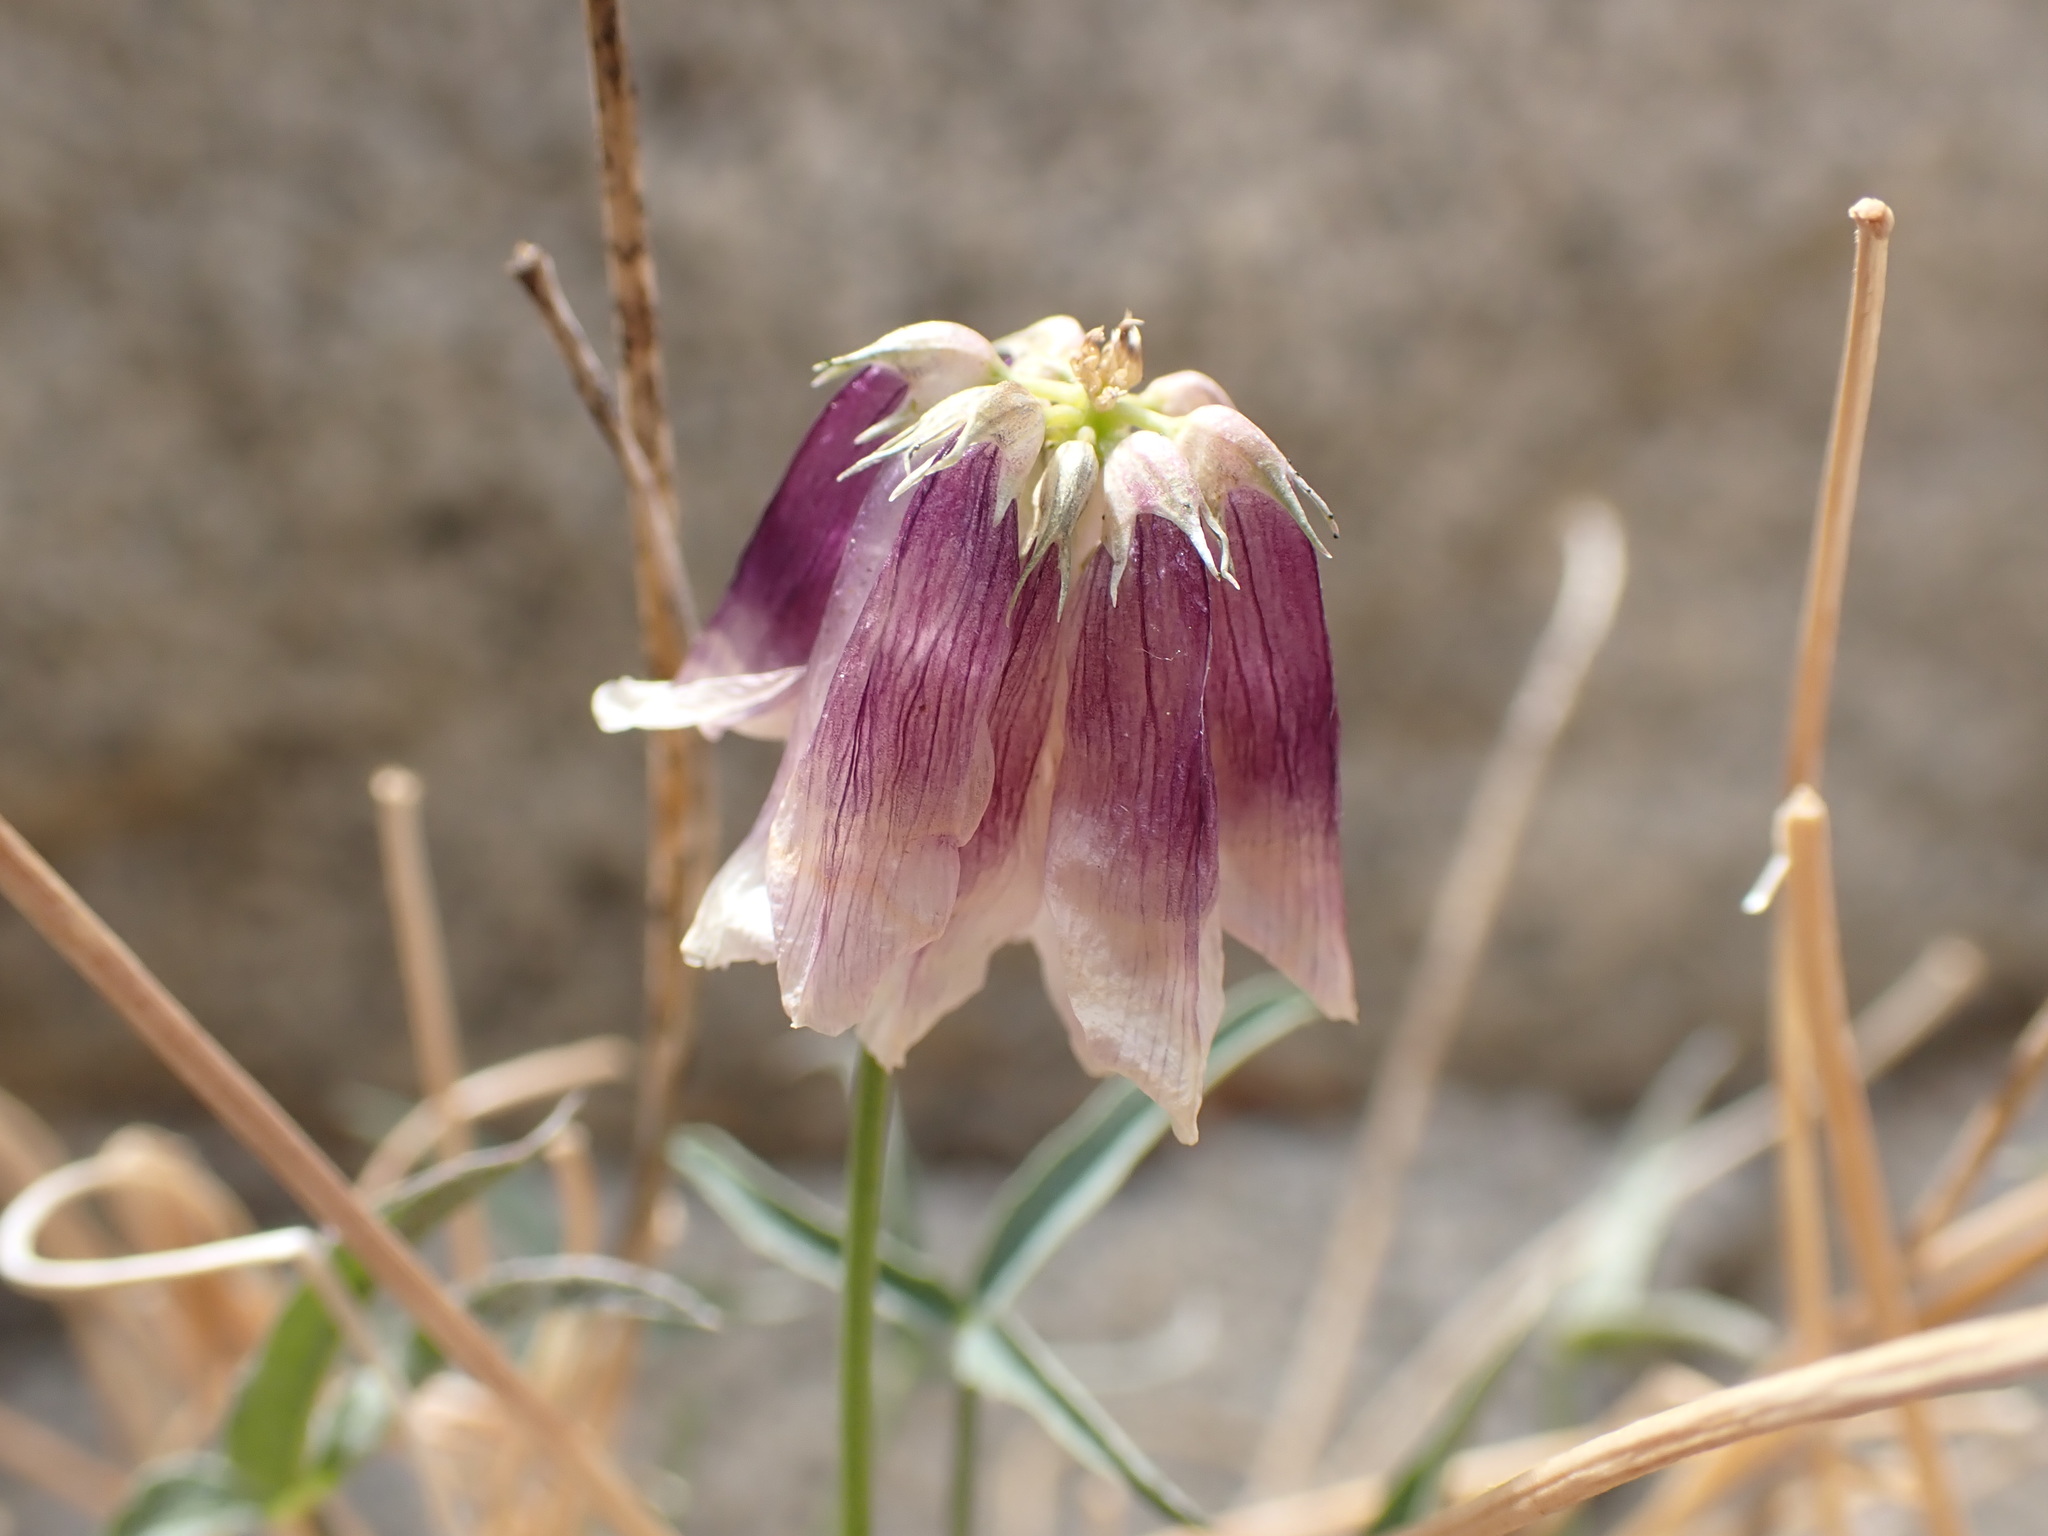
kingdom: Plantae
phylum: Tracheophyta
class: Magnoliopsida
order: Fabales
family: Fabaceae
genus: Trifolium
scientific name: Trifolium dedeckerae
